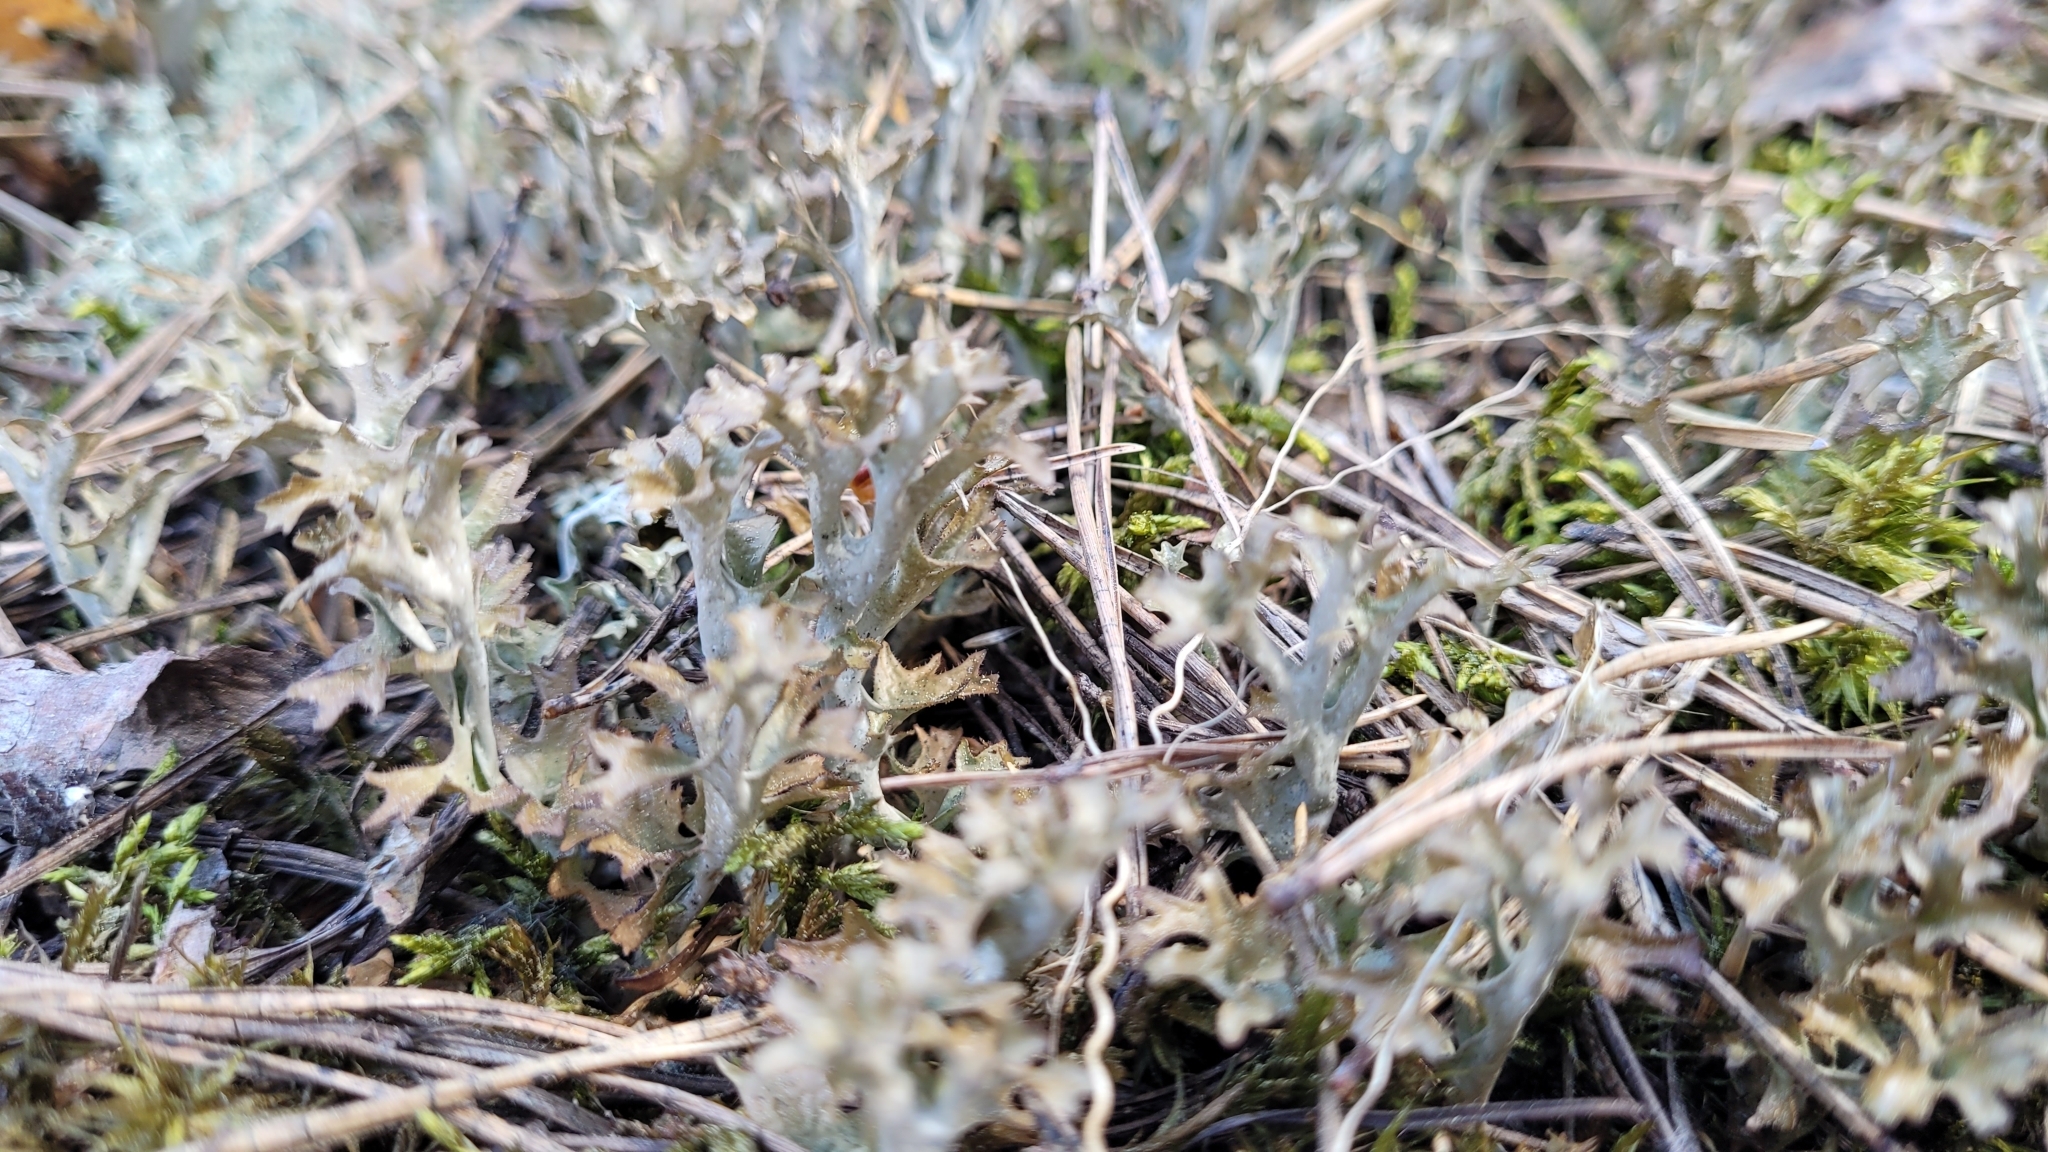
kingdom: Fungi
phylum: Ascomycota
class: Lecanoromycetes
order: Lecanorales
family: Parmeliaceae
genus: Cetraria
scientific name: Cetraria islandica
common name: Iceland lichen
